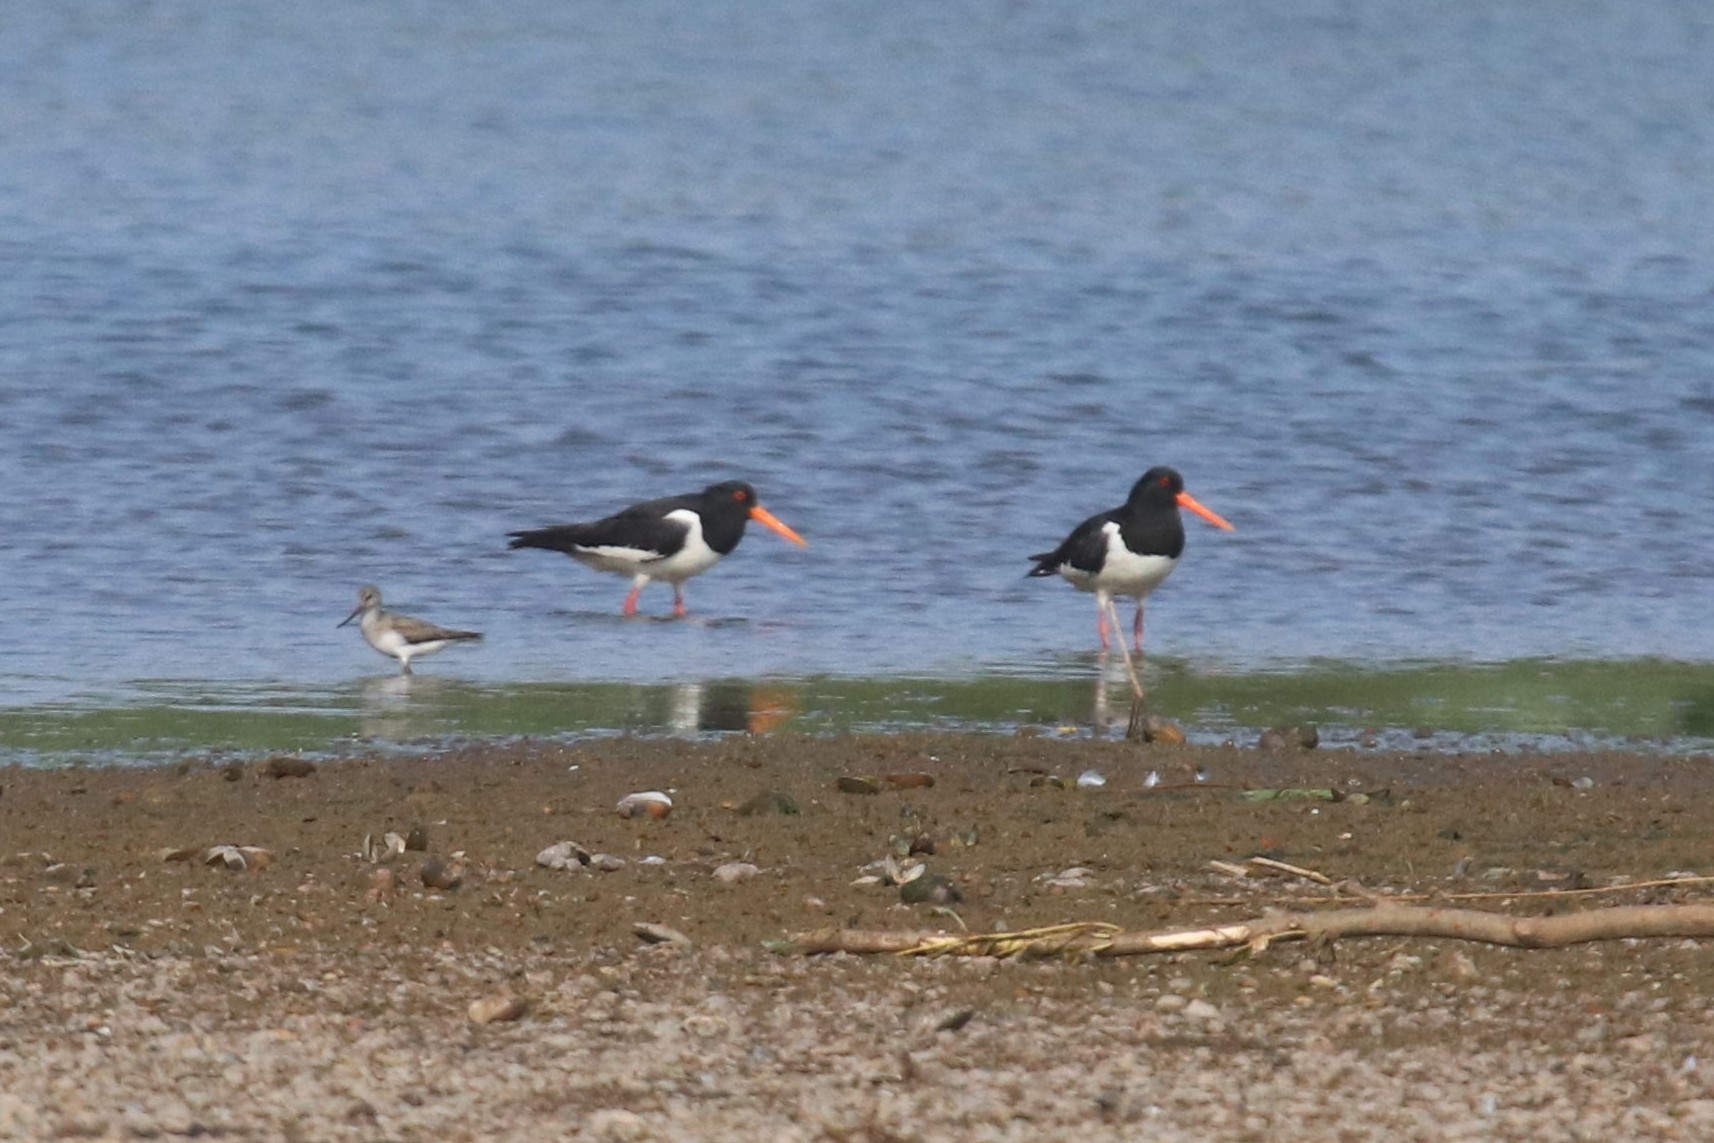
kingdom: Animalia
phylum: Chordata
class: Aves
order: Charadriiformes
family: Haematopodidae
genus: Haematopus
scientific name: Haematopus ostralegus
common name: Eurasian oystercatcher
